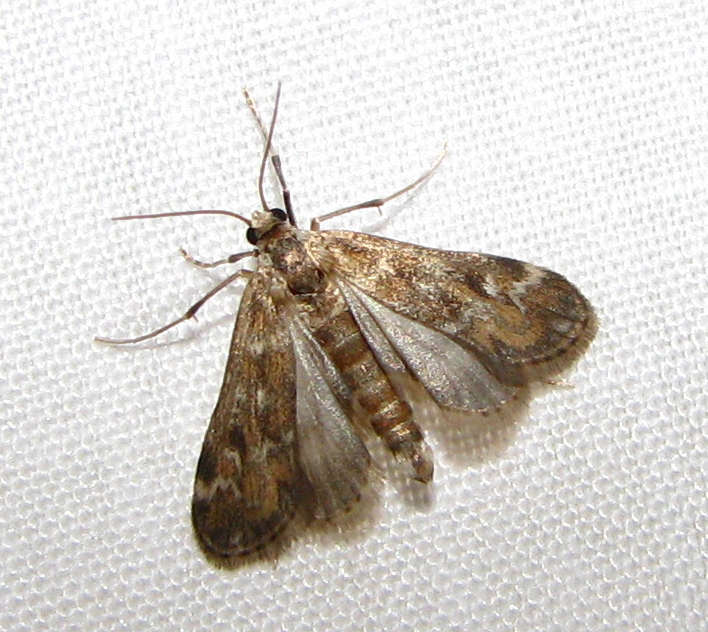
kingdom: Animalia
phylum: Arthropoda
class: Insecta
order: Lepidoptera
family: Crambidae
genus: Hygraula
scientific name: Hygraula nitens
